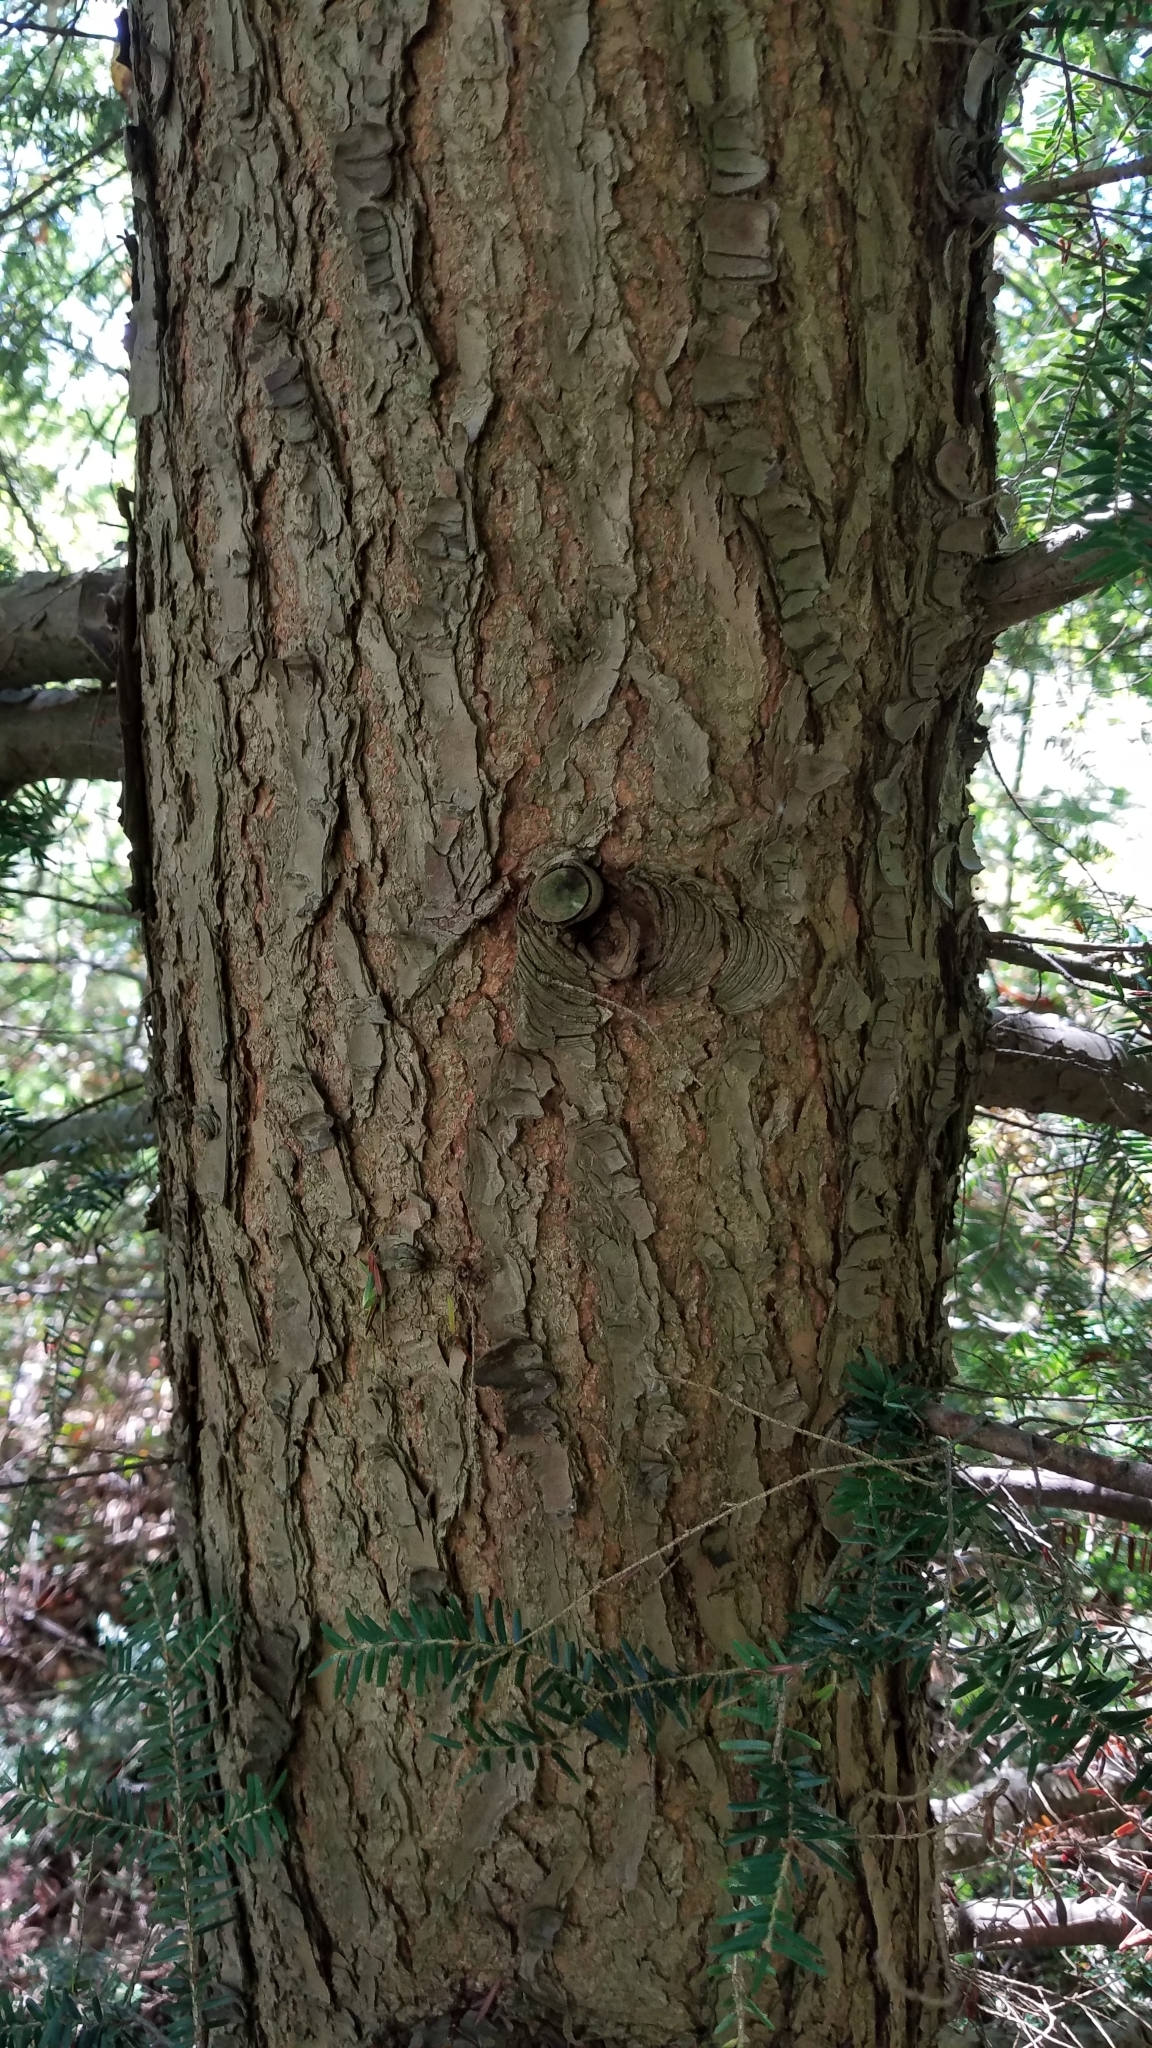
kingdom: Plantae
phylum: Tracheophyta
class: Pinopsida
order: Pinales
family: Pinaceae
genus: Tsuga
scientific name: Tsuga canadensis
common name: Eastern hemlock
